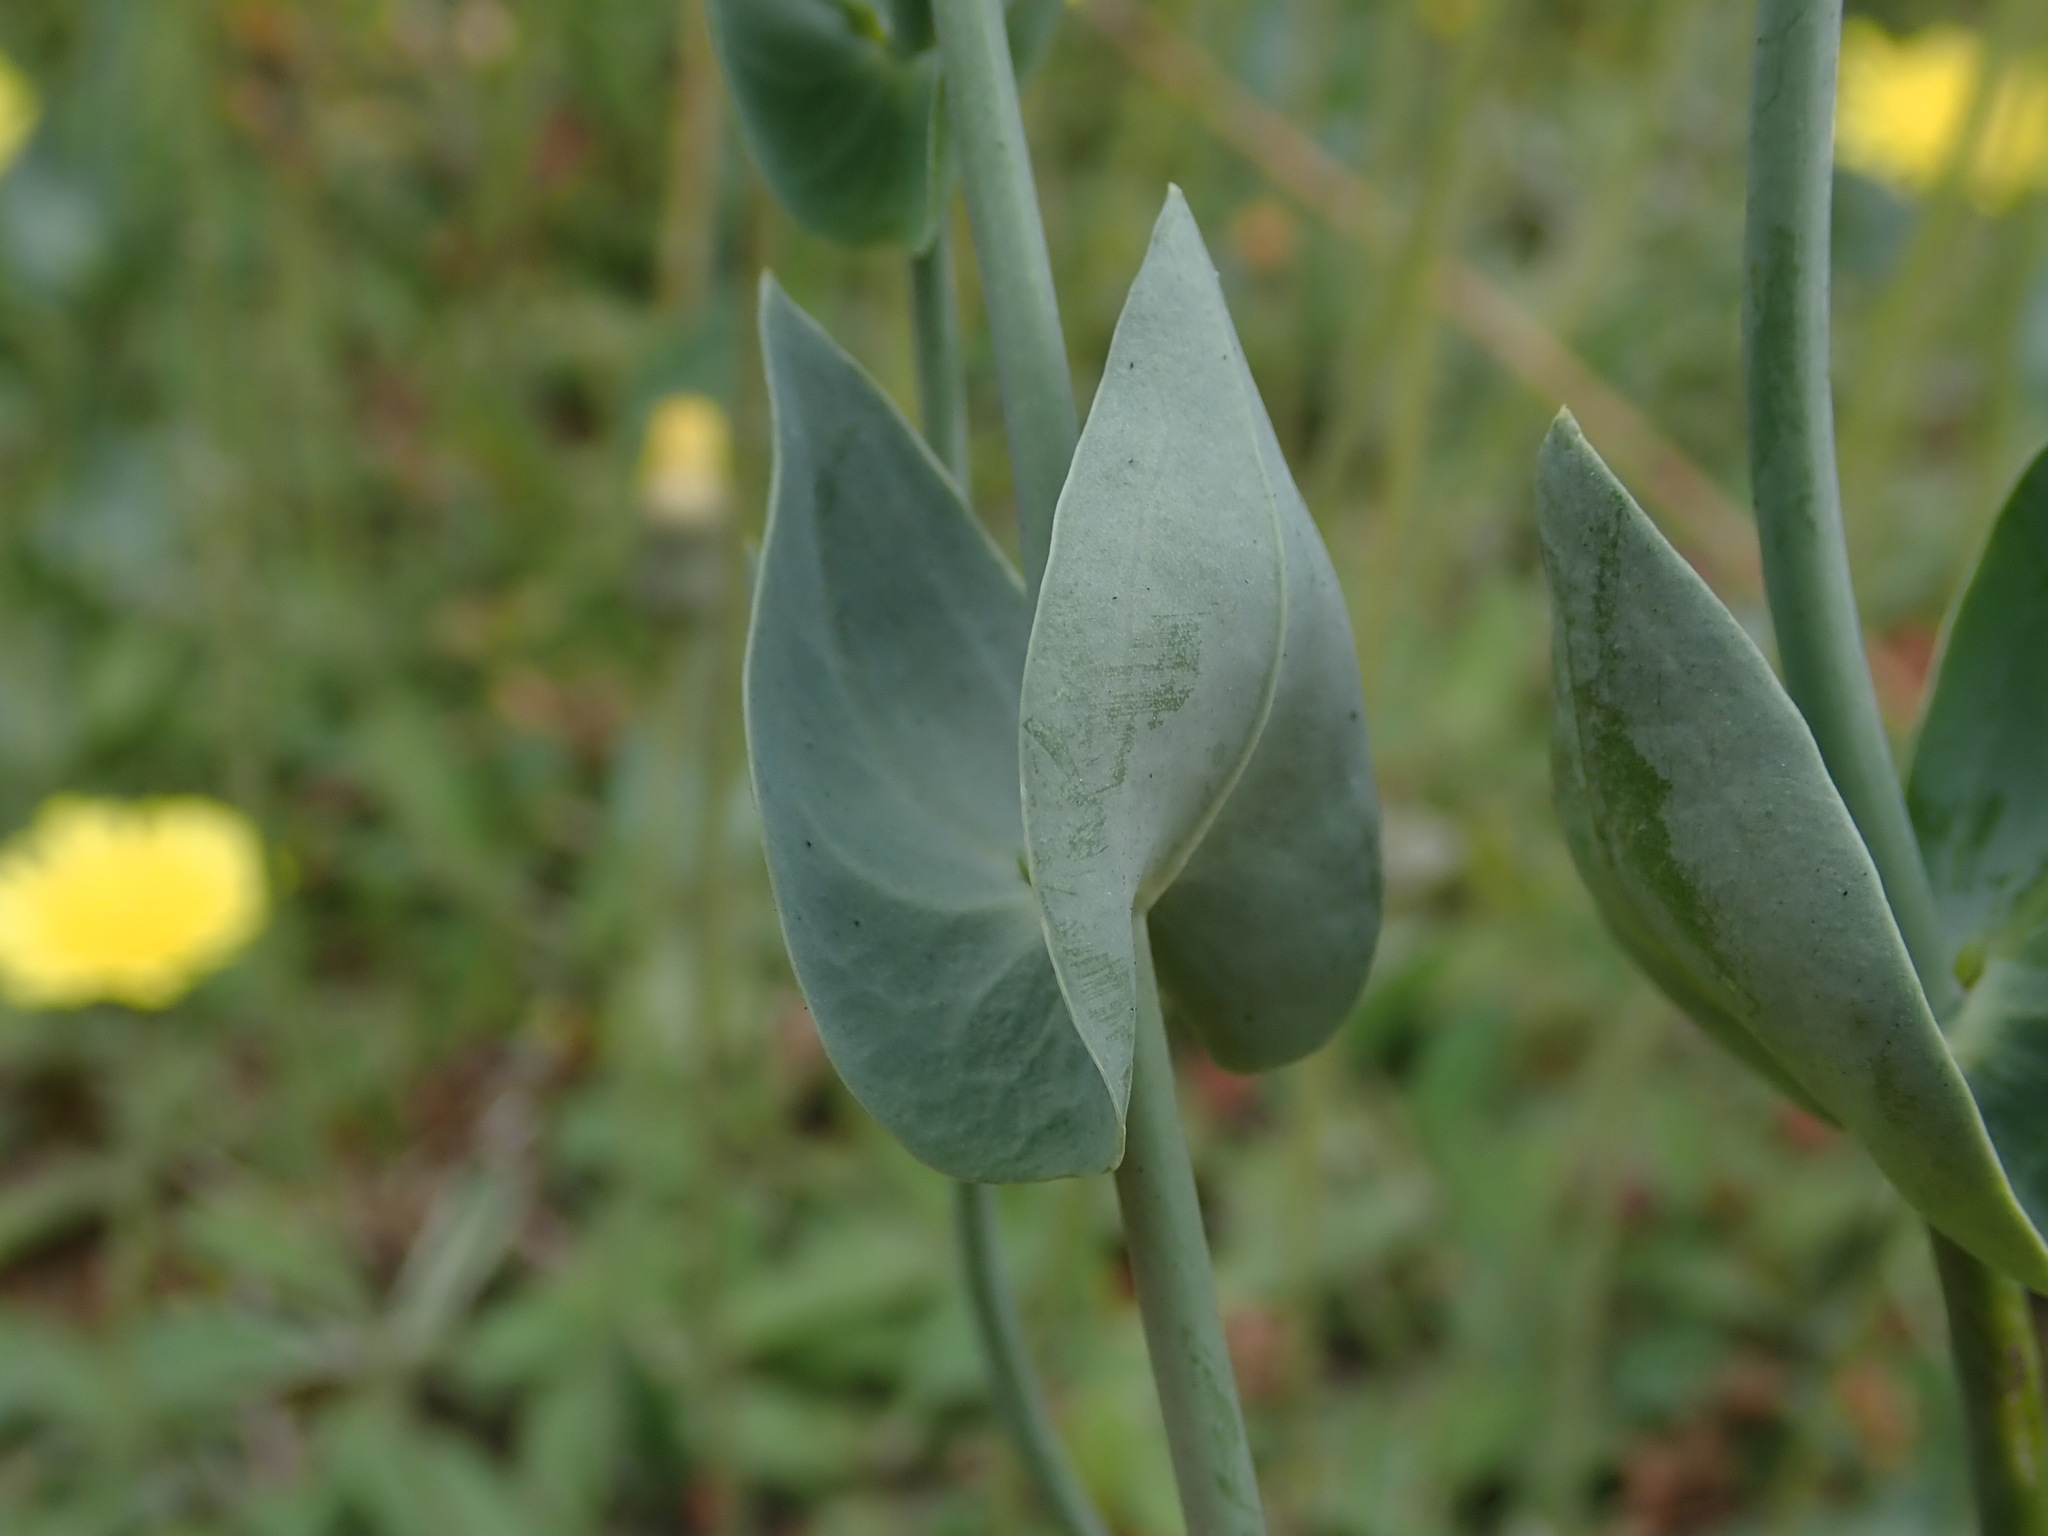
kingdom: Plantae
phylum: Tracheophyta
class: Magnoliopsida
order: Gentianales
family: Gentianaceae
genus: Blackstonia
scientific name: Blackstonia perfoliata
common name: Yellow-wort
